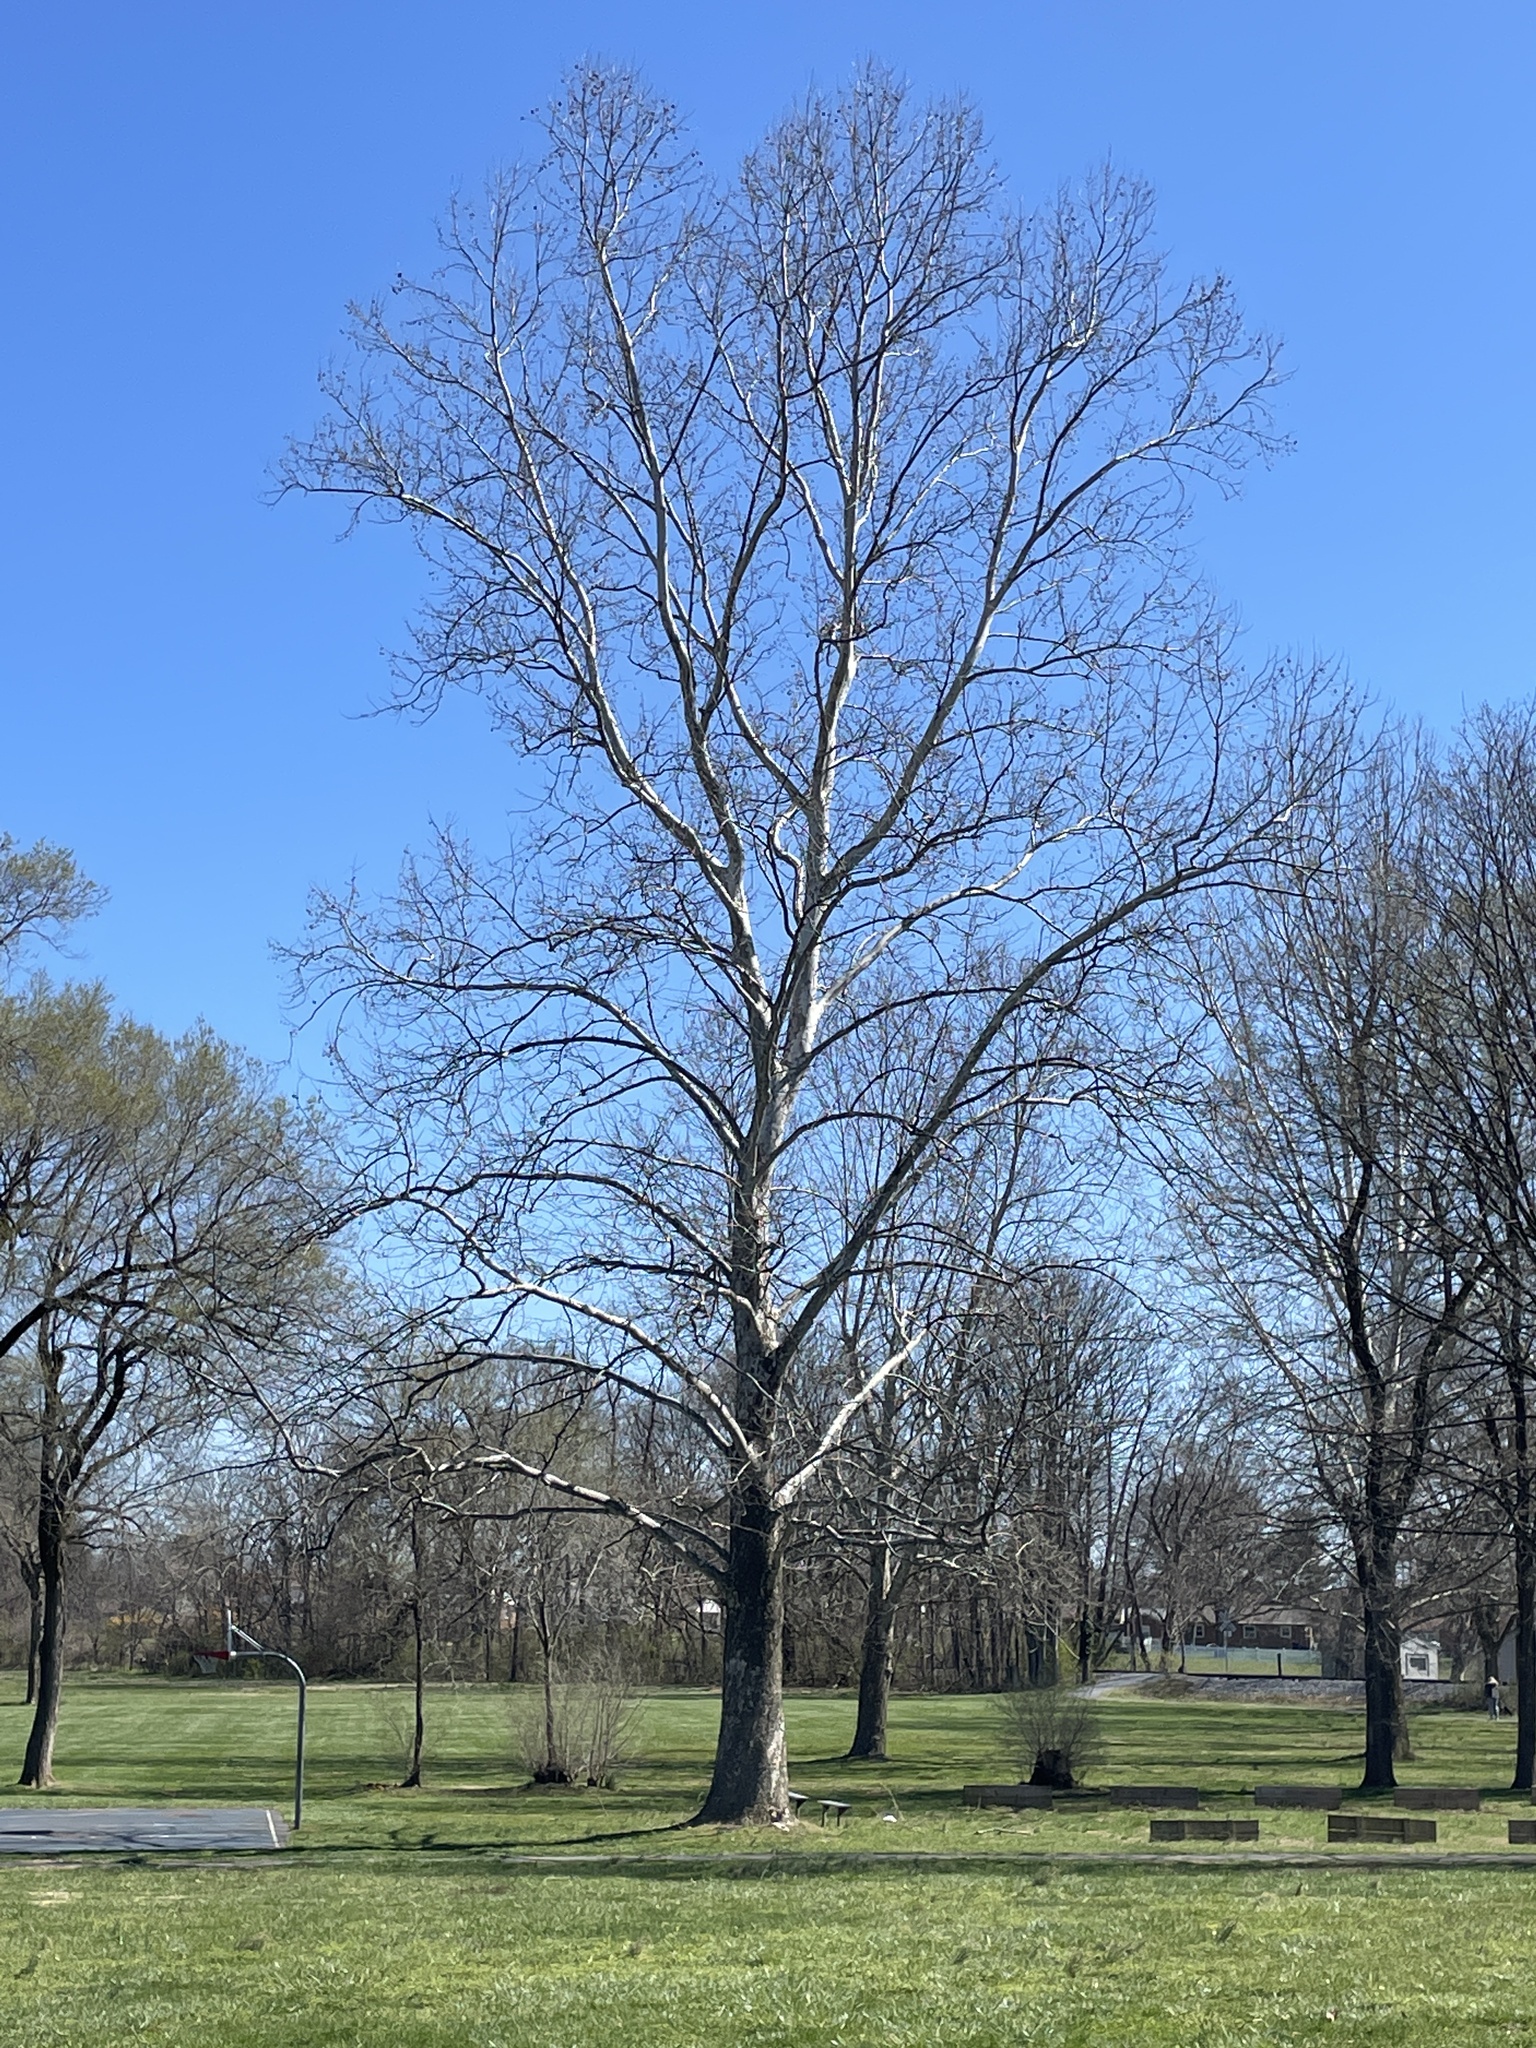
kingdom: Plantae
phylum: Tracheophyta
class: Magnoliopsida
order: Proteales
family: Platanaceae
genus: Platanus
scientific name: Platanus occidentalis
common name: American sycamore
